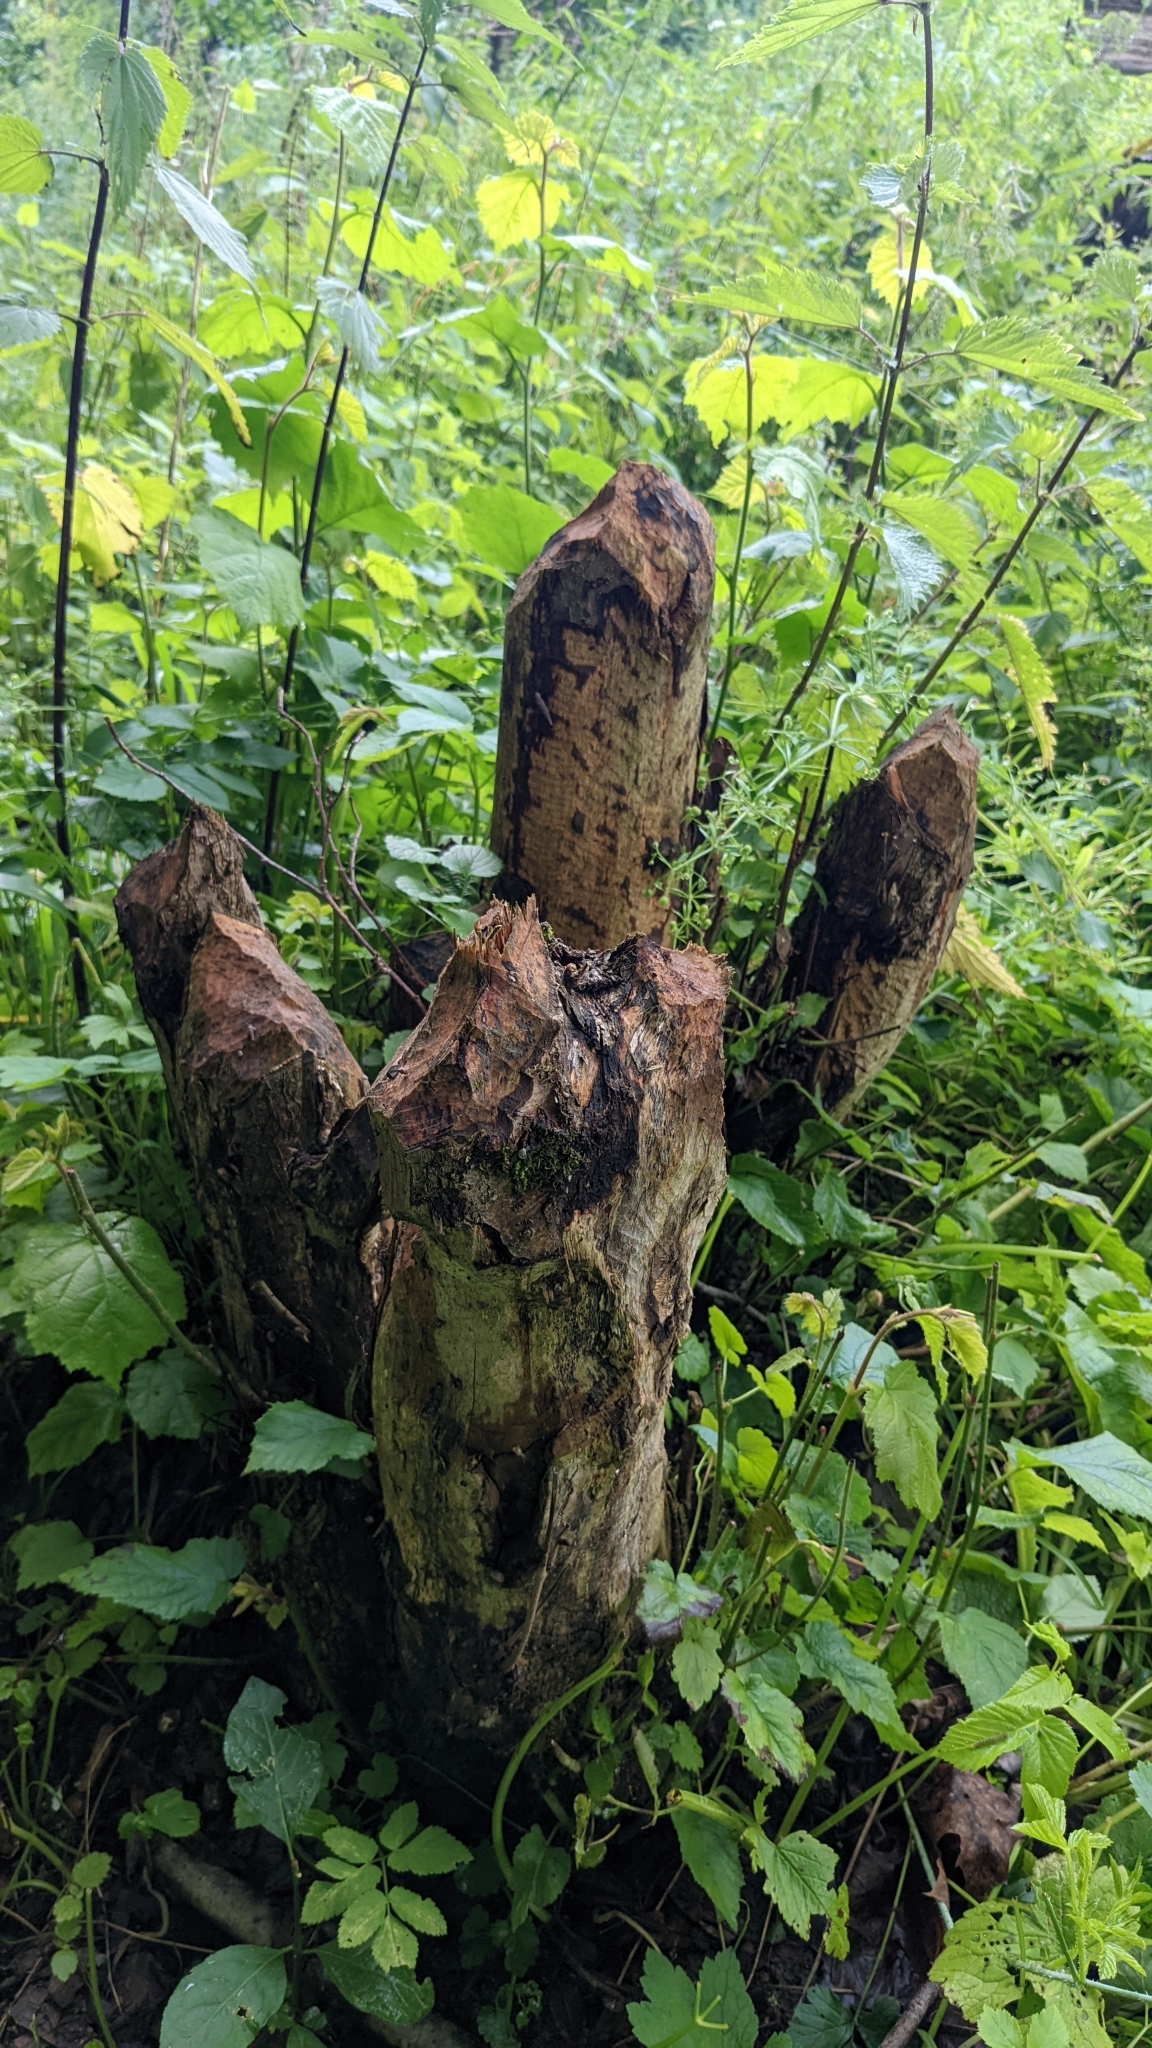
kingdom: Animalia
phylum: Chordata
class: Mammalia
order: Rodentia
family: Castoridae
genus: Castor
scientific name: Castor fiber
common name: Eurasian beaver
